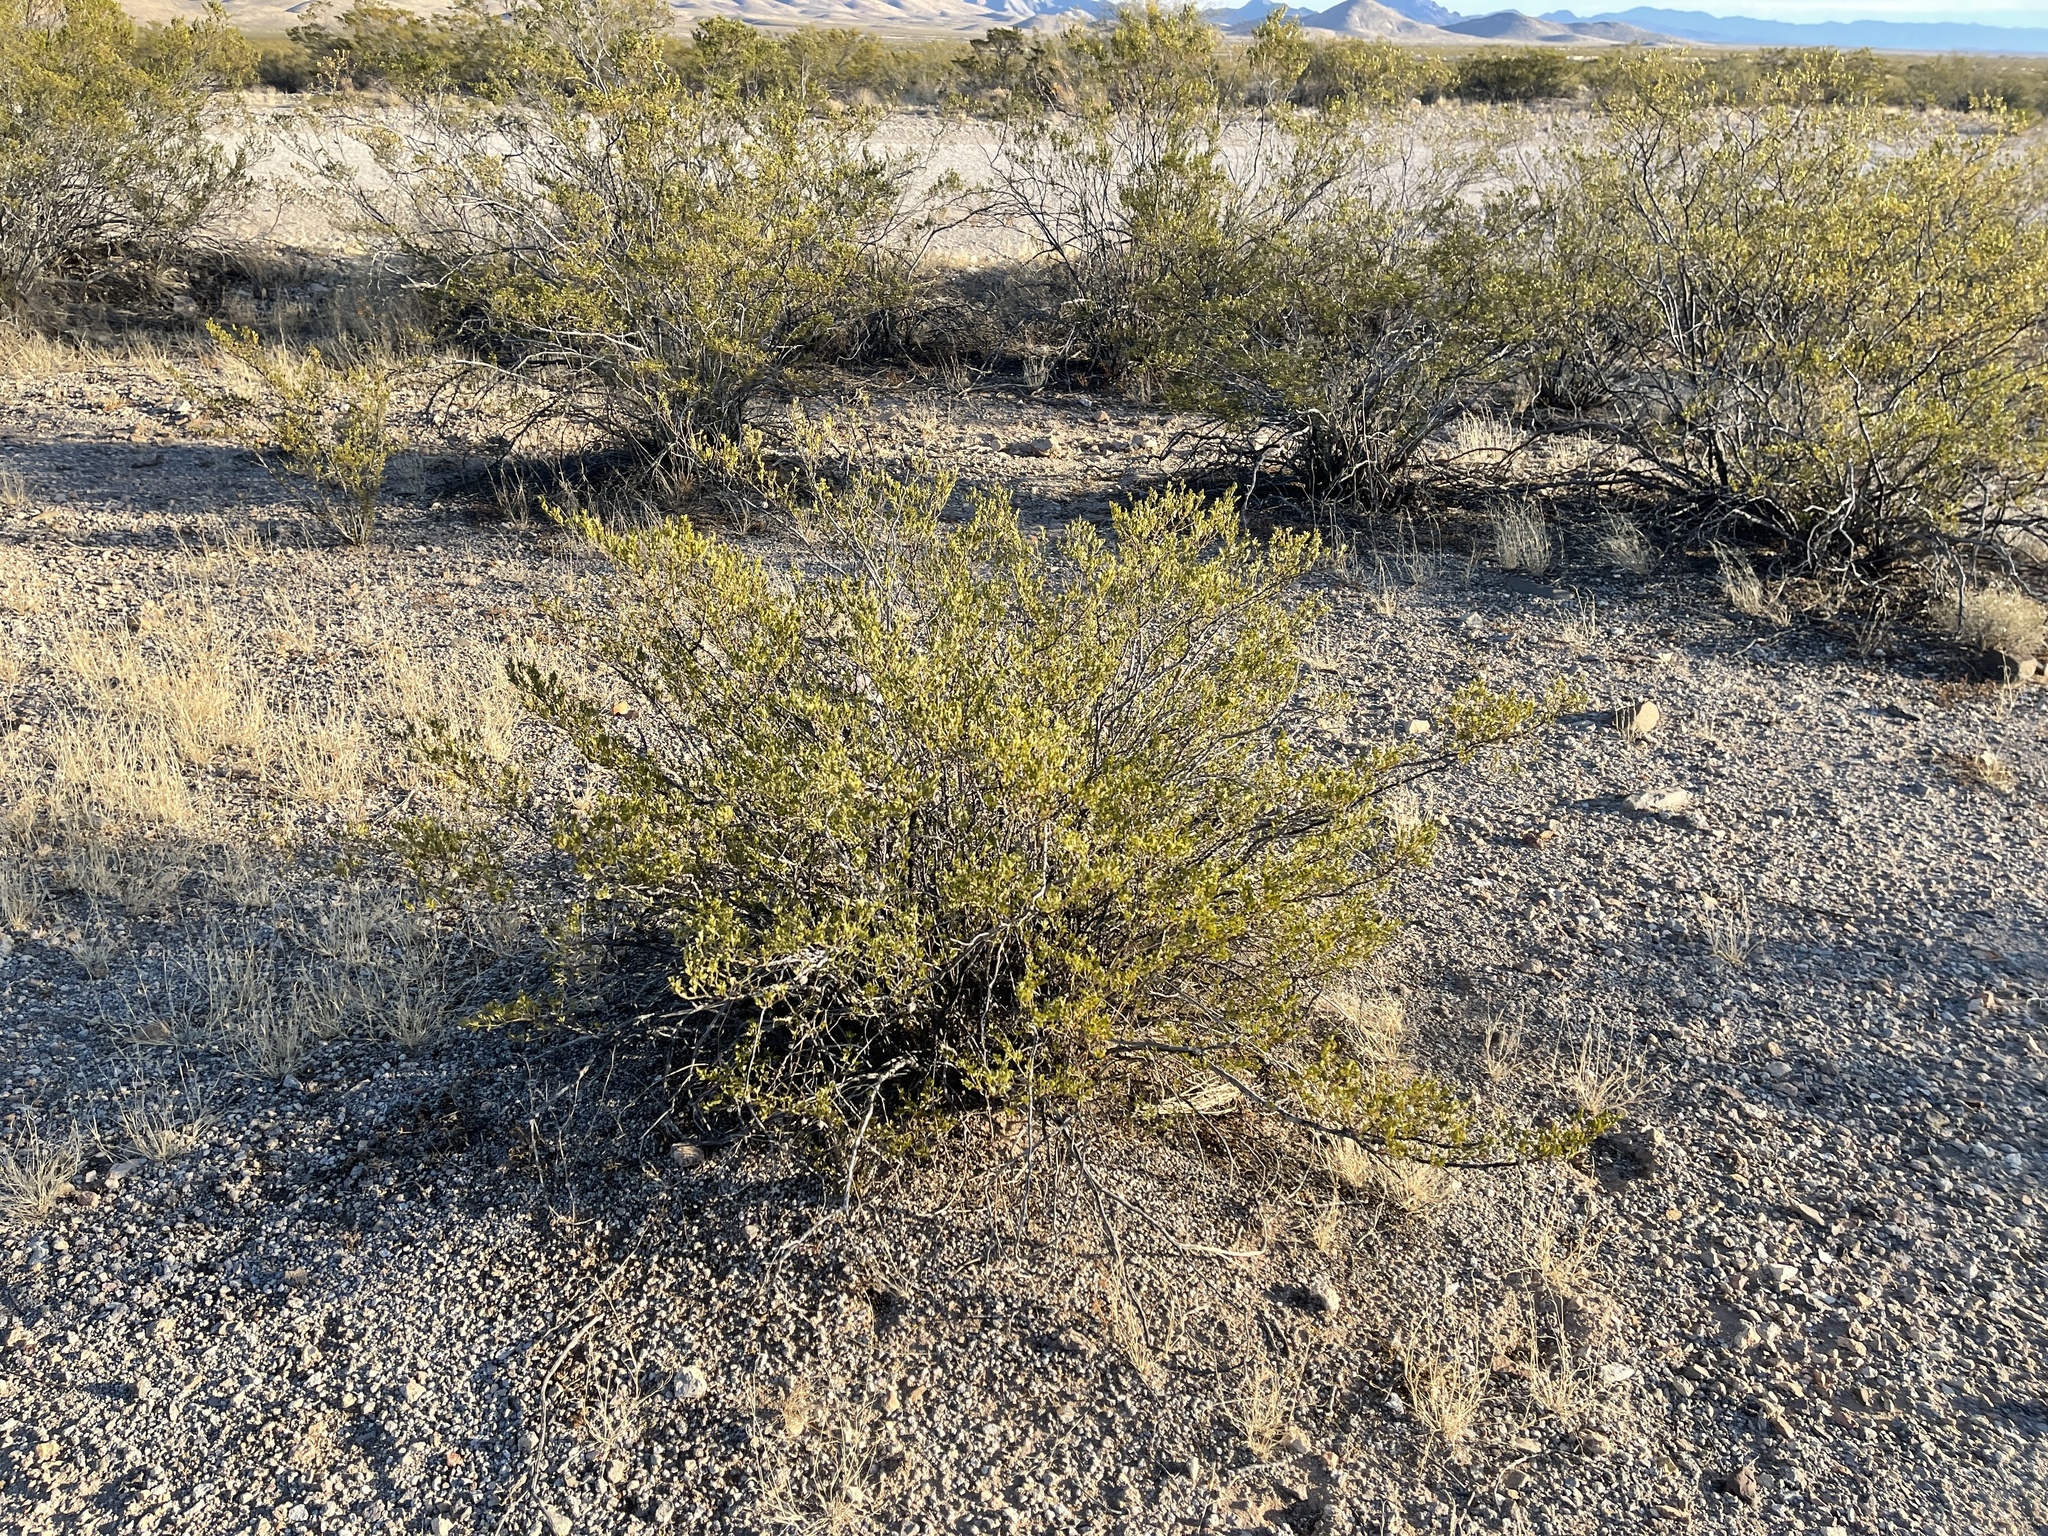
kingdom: Plantae
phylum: Tracheophyta
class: Magnoliopsida
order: Zygophyllales
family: Zygophyllaceae
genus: Larrea
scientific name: Larrea tridentata
